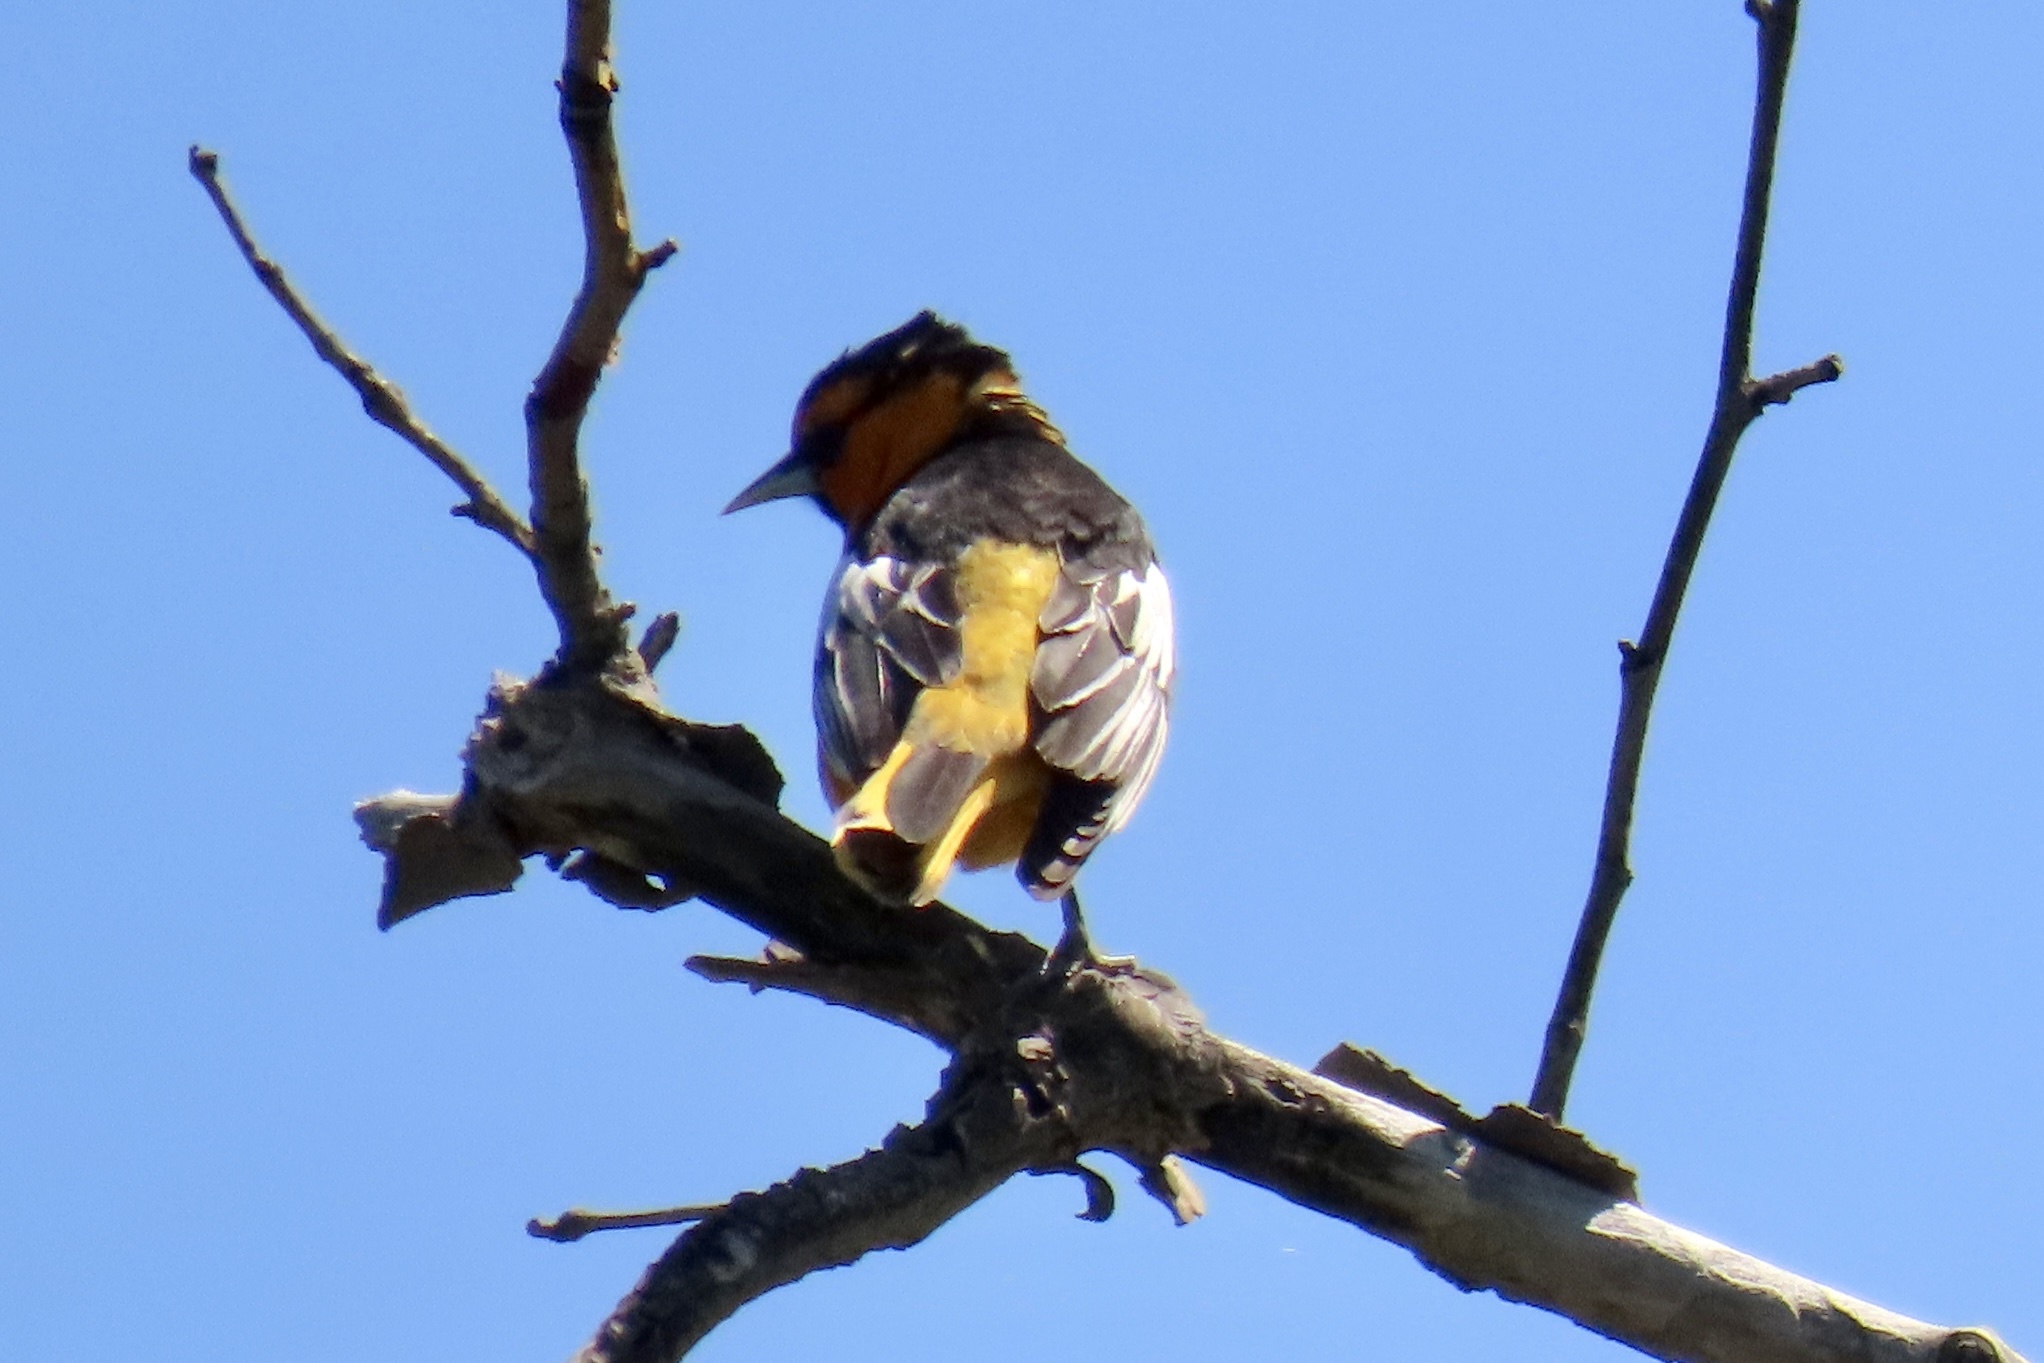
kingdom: Animalia
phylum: Chordata
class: Aves
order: Passeriformes
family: Icteridae
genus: Icterus
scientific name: Icterus bullockii
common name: Bullock's oriole
